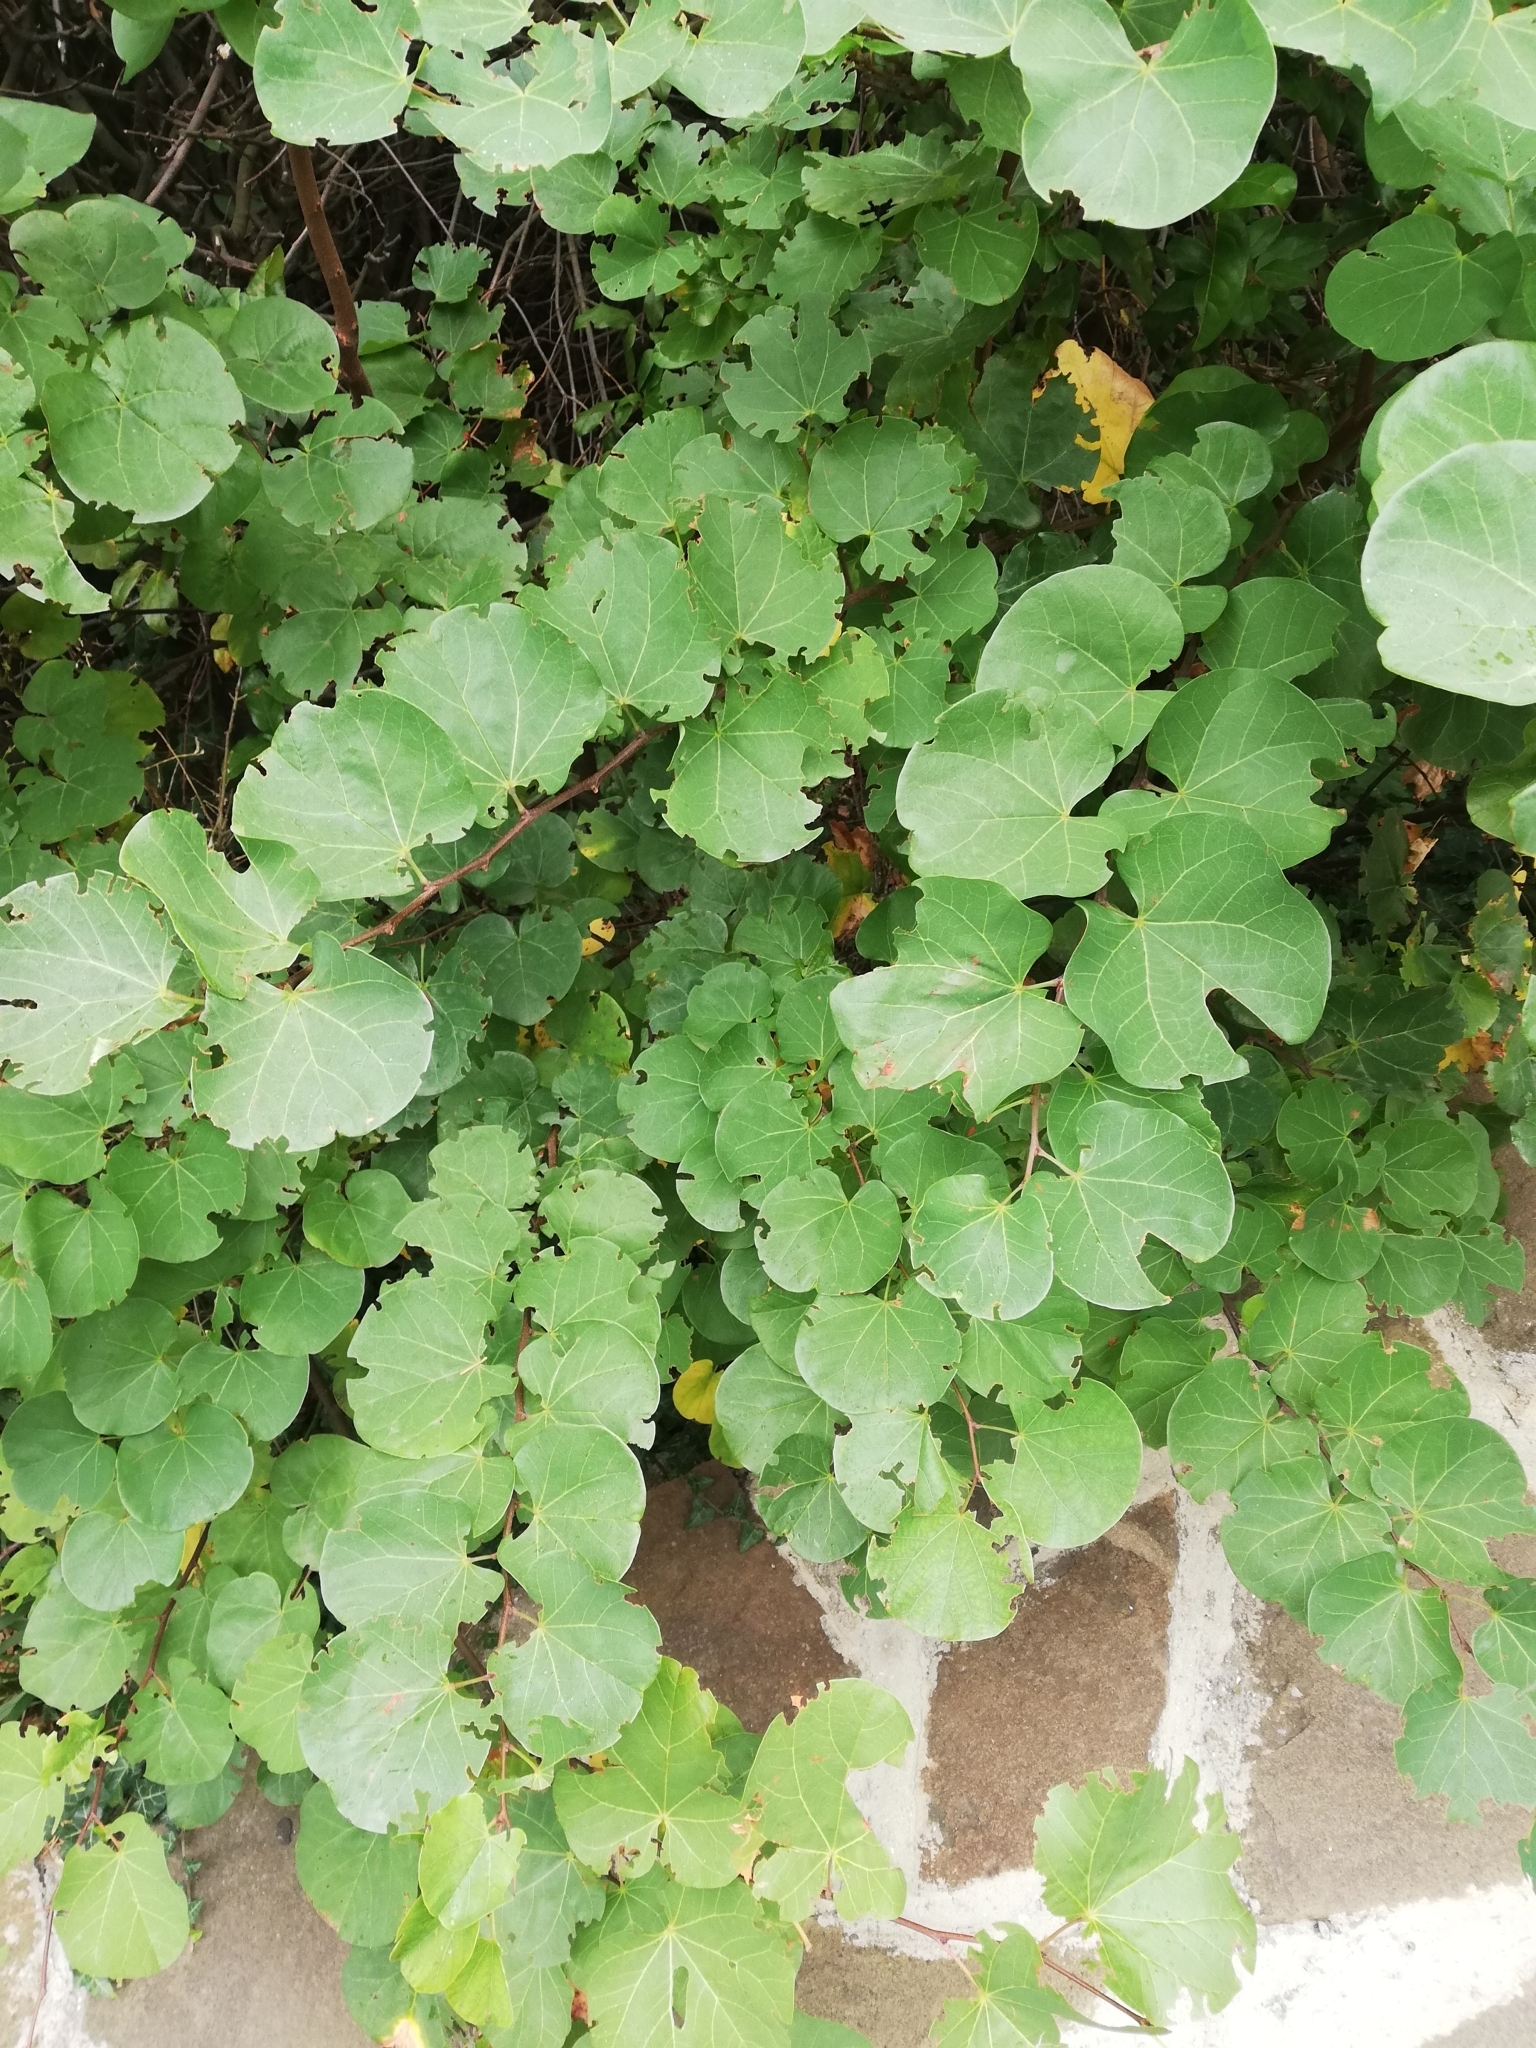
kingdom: Plantae
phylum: Tracheophyta
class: Magnoliopsida
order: Fabales
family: Fabaceae
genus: Cercis
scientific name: Cercis siliquastrum
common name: Judas tree
